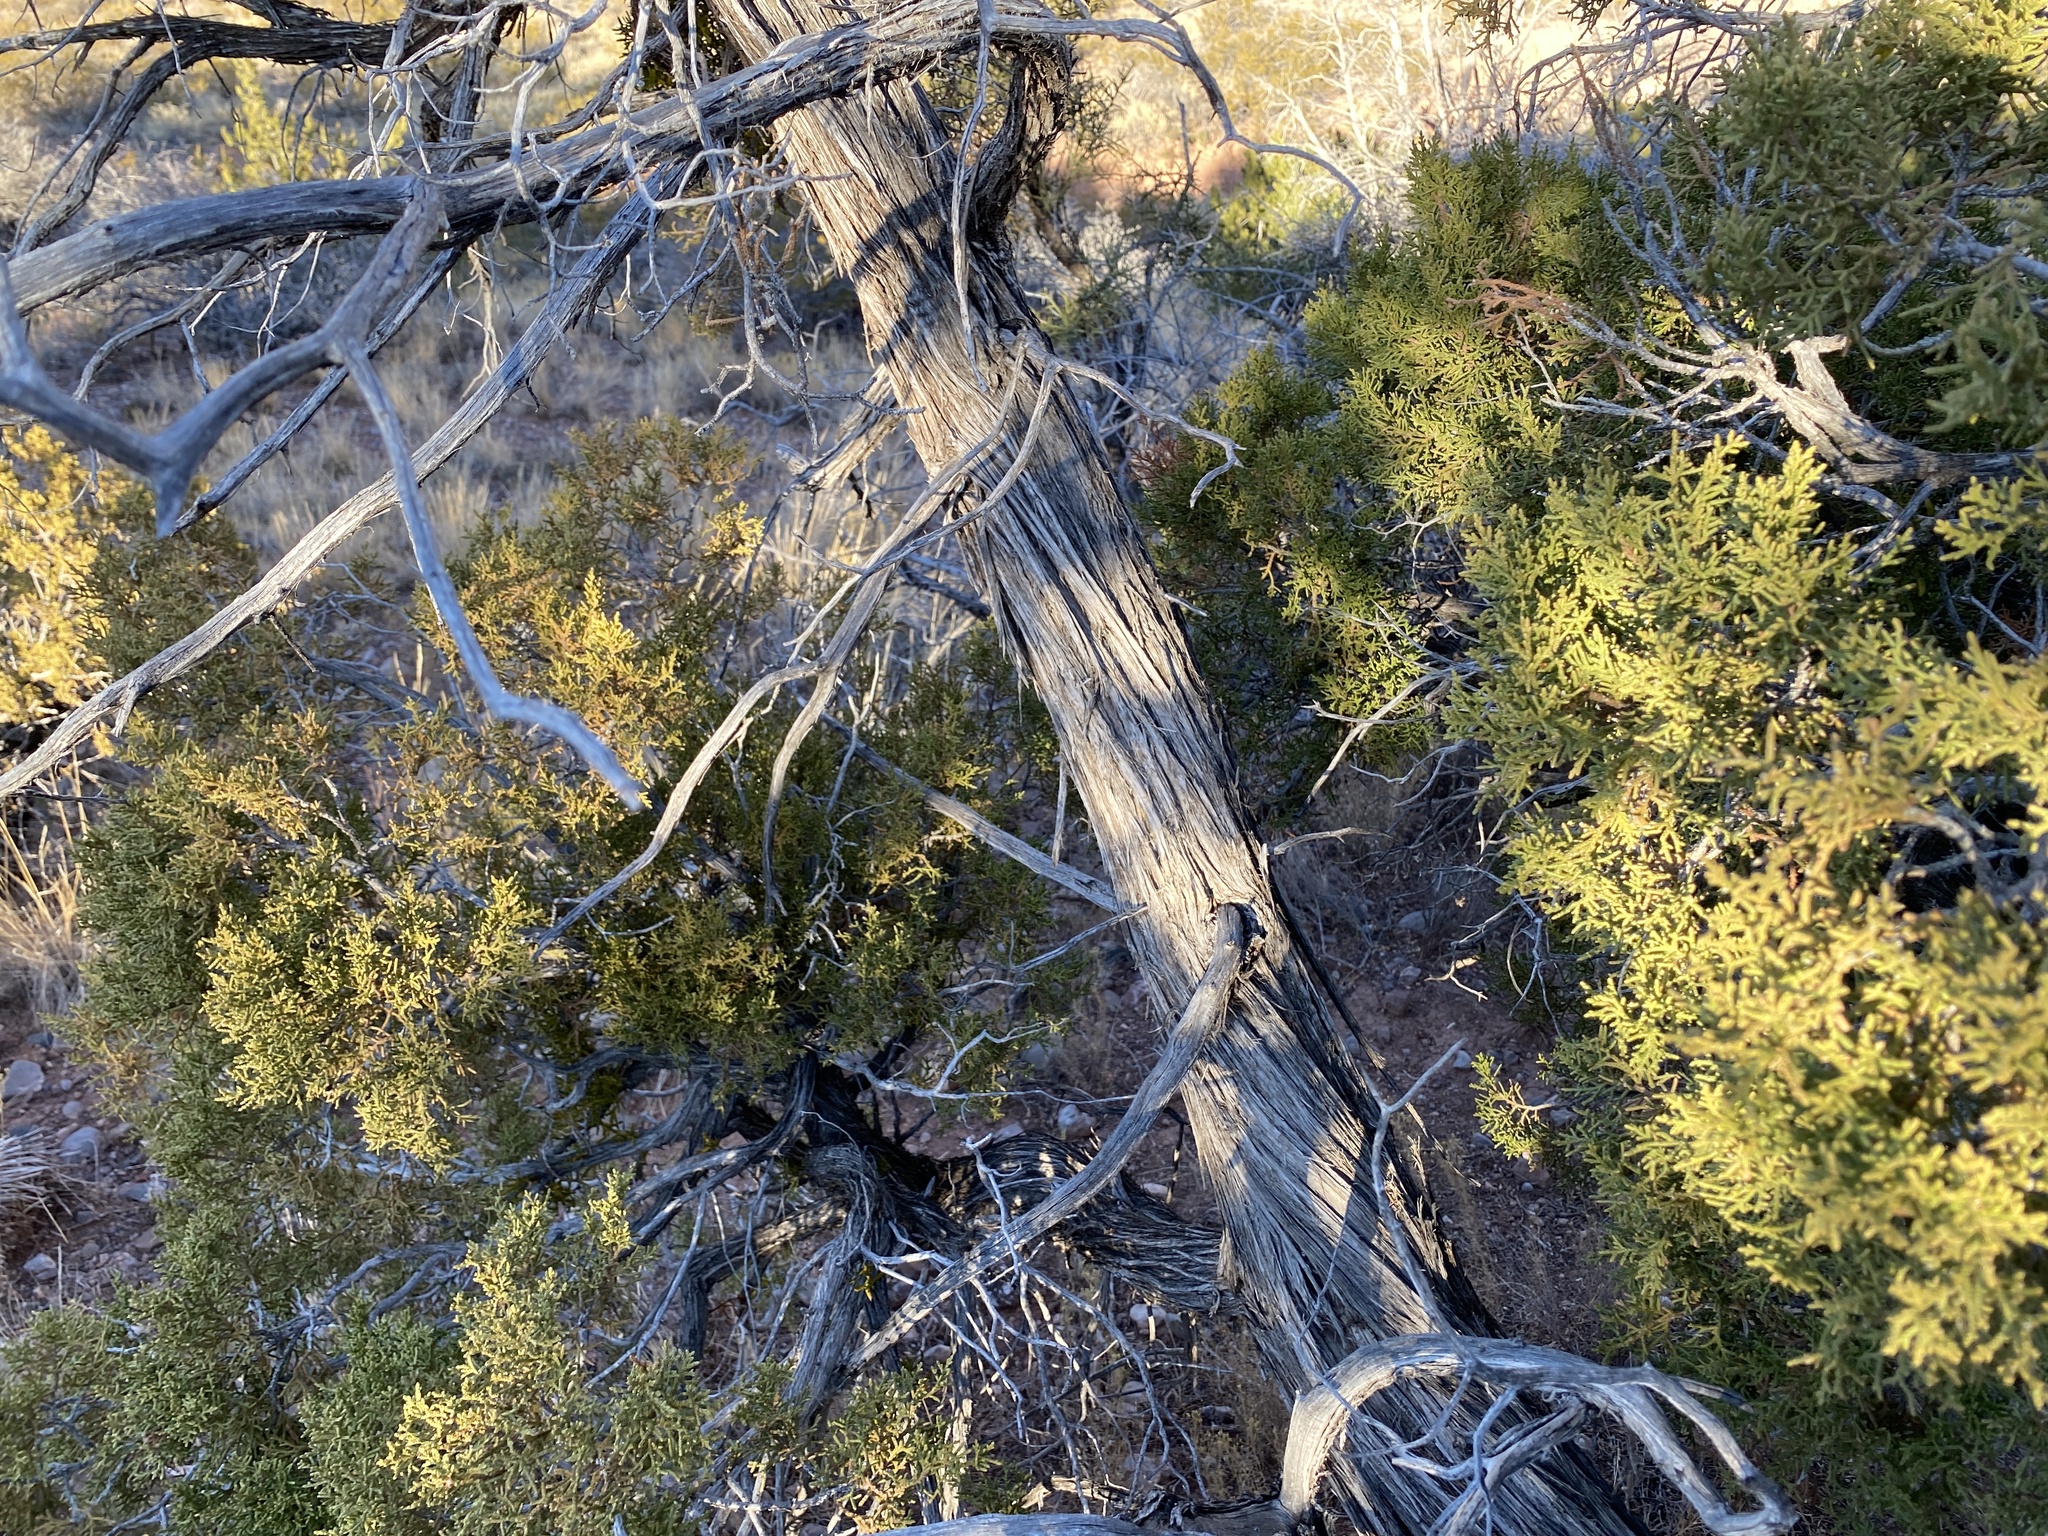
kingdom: Plantae
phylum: Tracheophyta
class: Pinopsida
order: Pinales
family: Cupressaceae
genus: Juniperus
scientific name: Juniperus monosperma
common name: One-seed juniper
